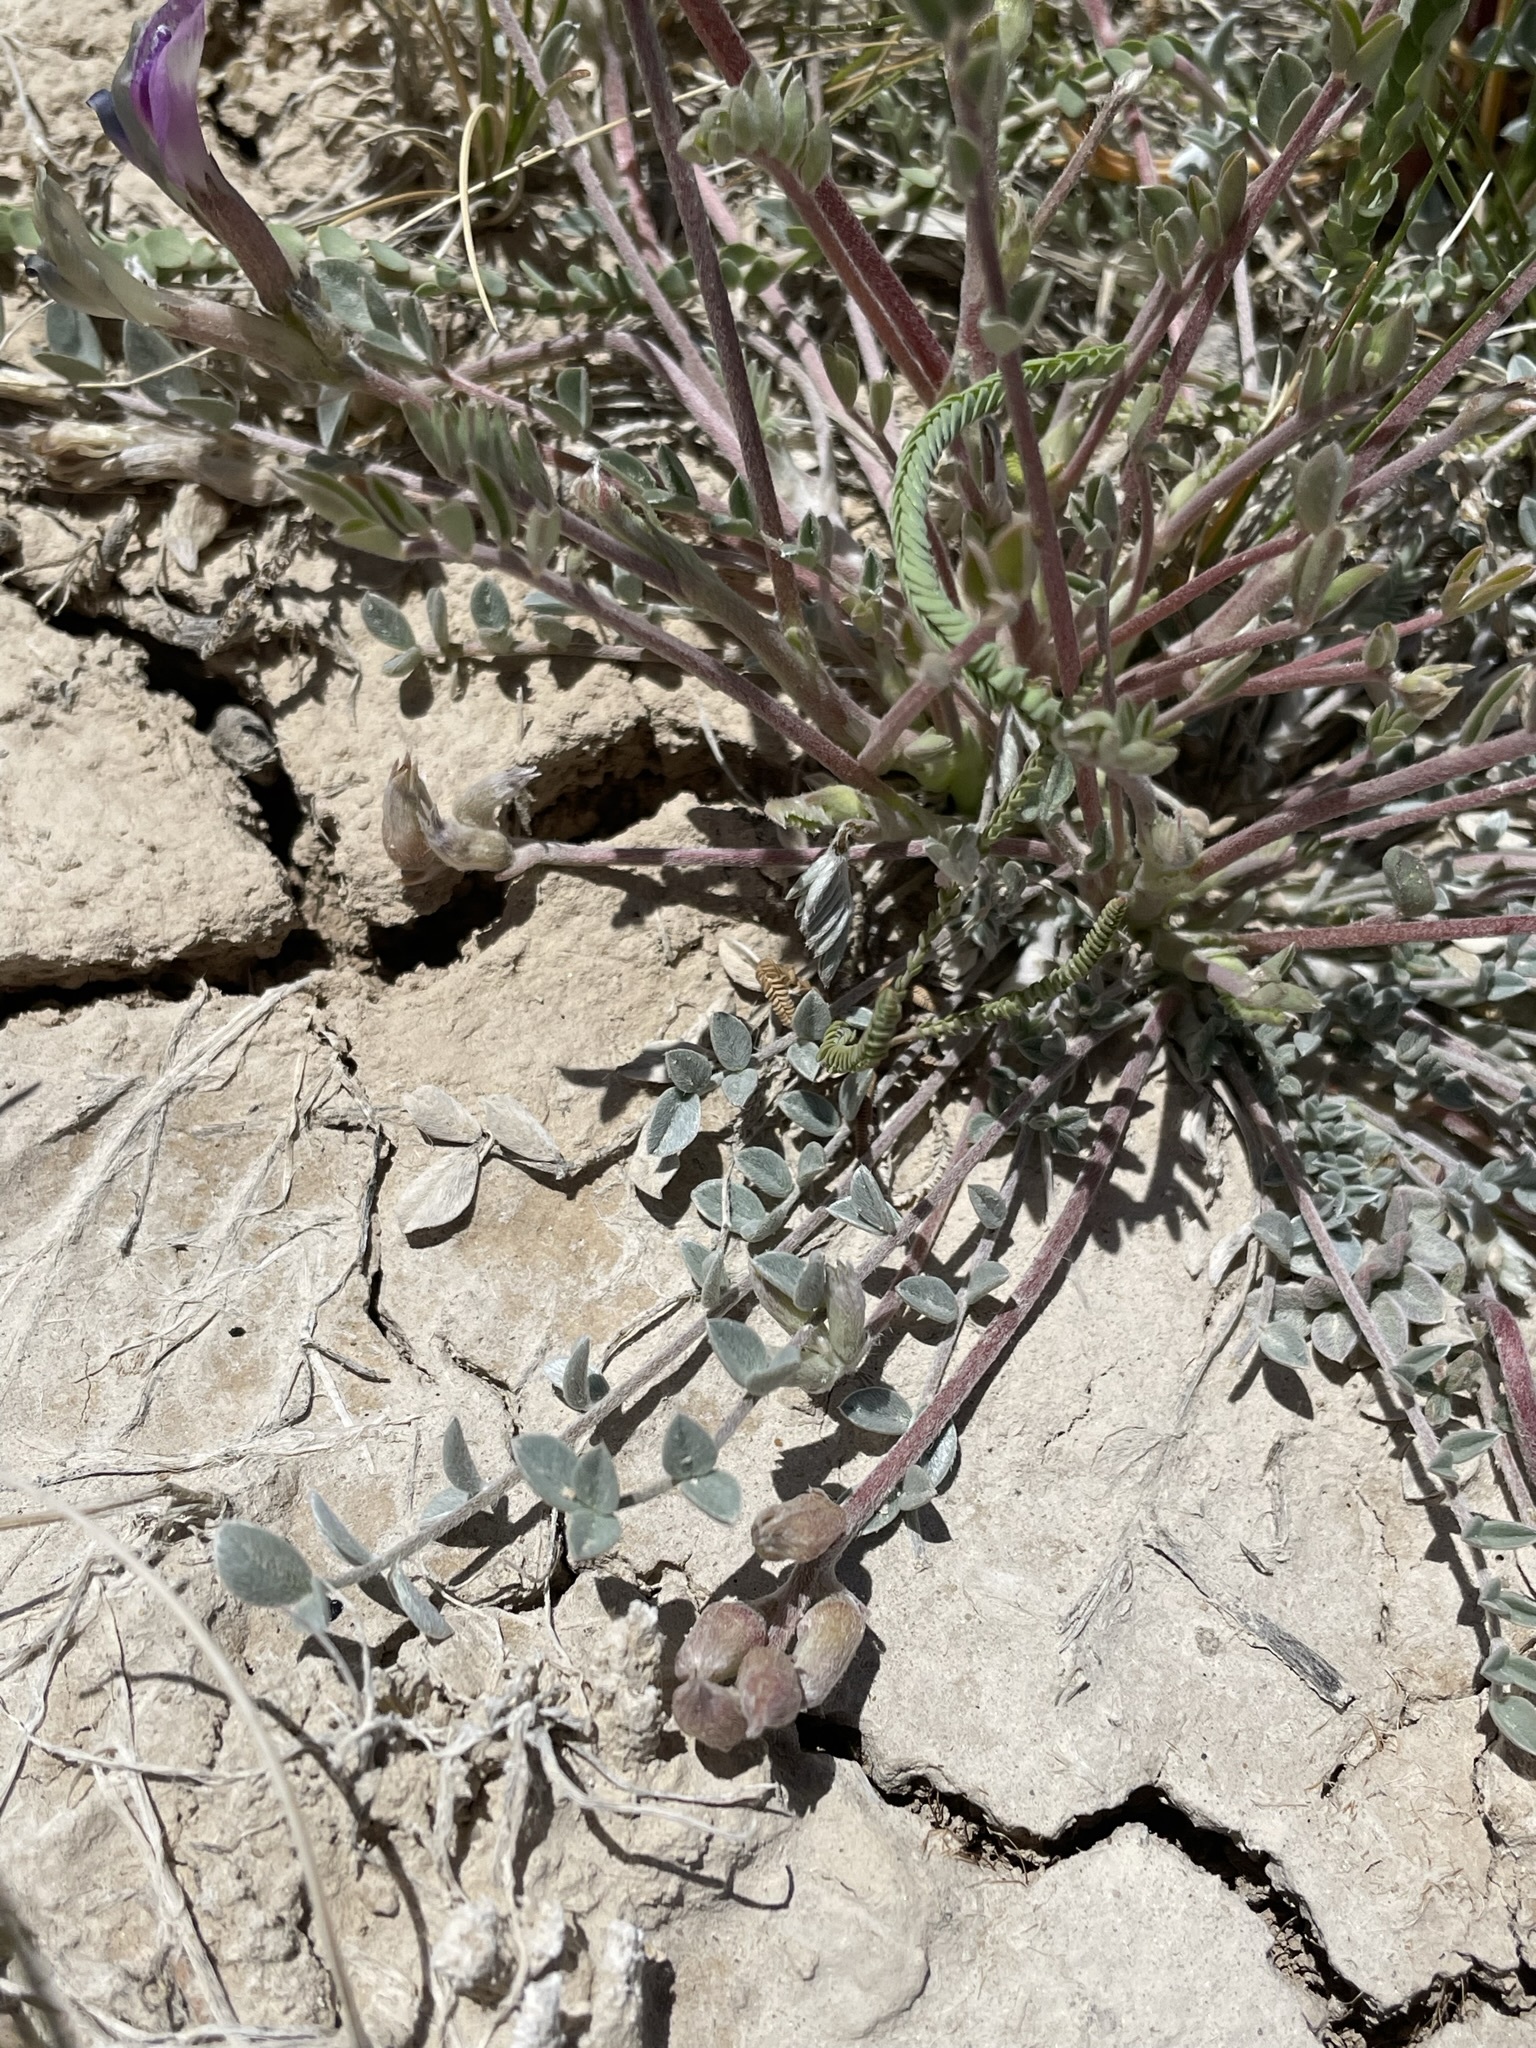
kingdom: Plantae
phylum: Tracheophyta
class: Magnoliopsida
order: Fabales
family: Fabaceae
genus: Astragalus
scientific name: Astragalus argophyllus
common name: Silverleaf milk-vetch
